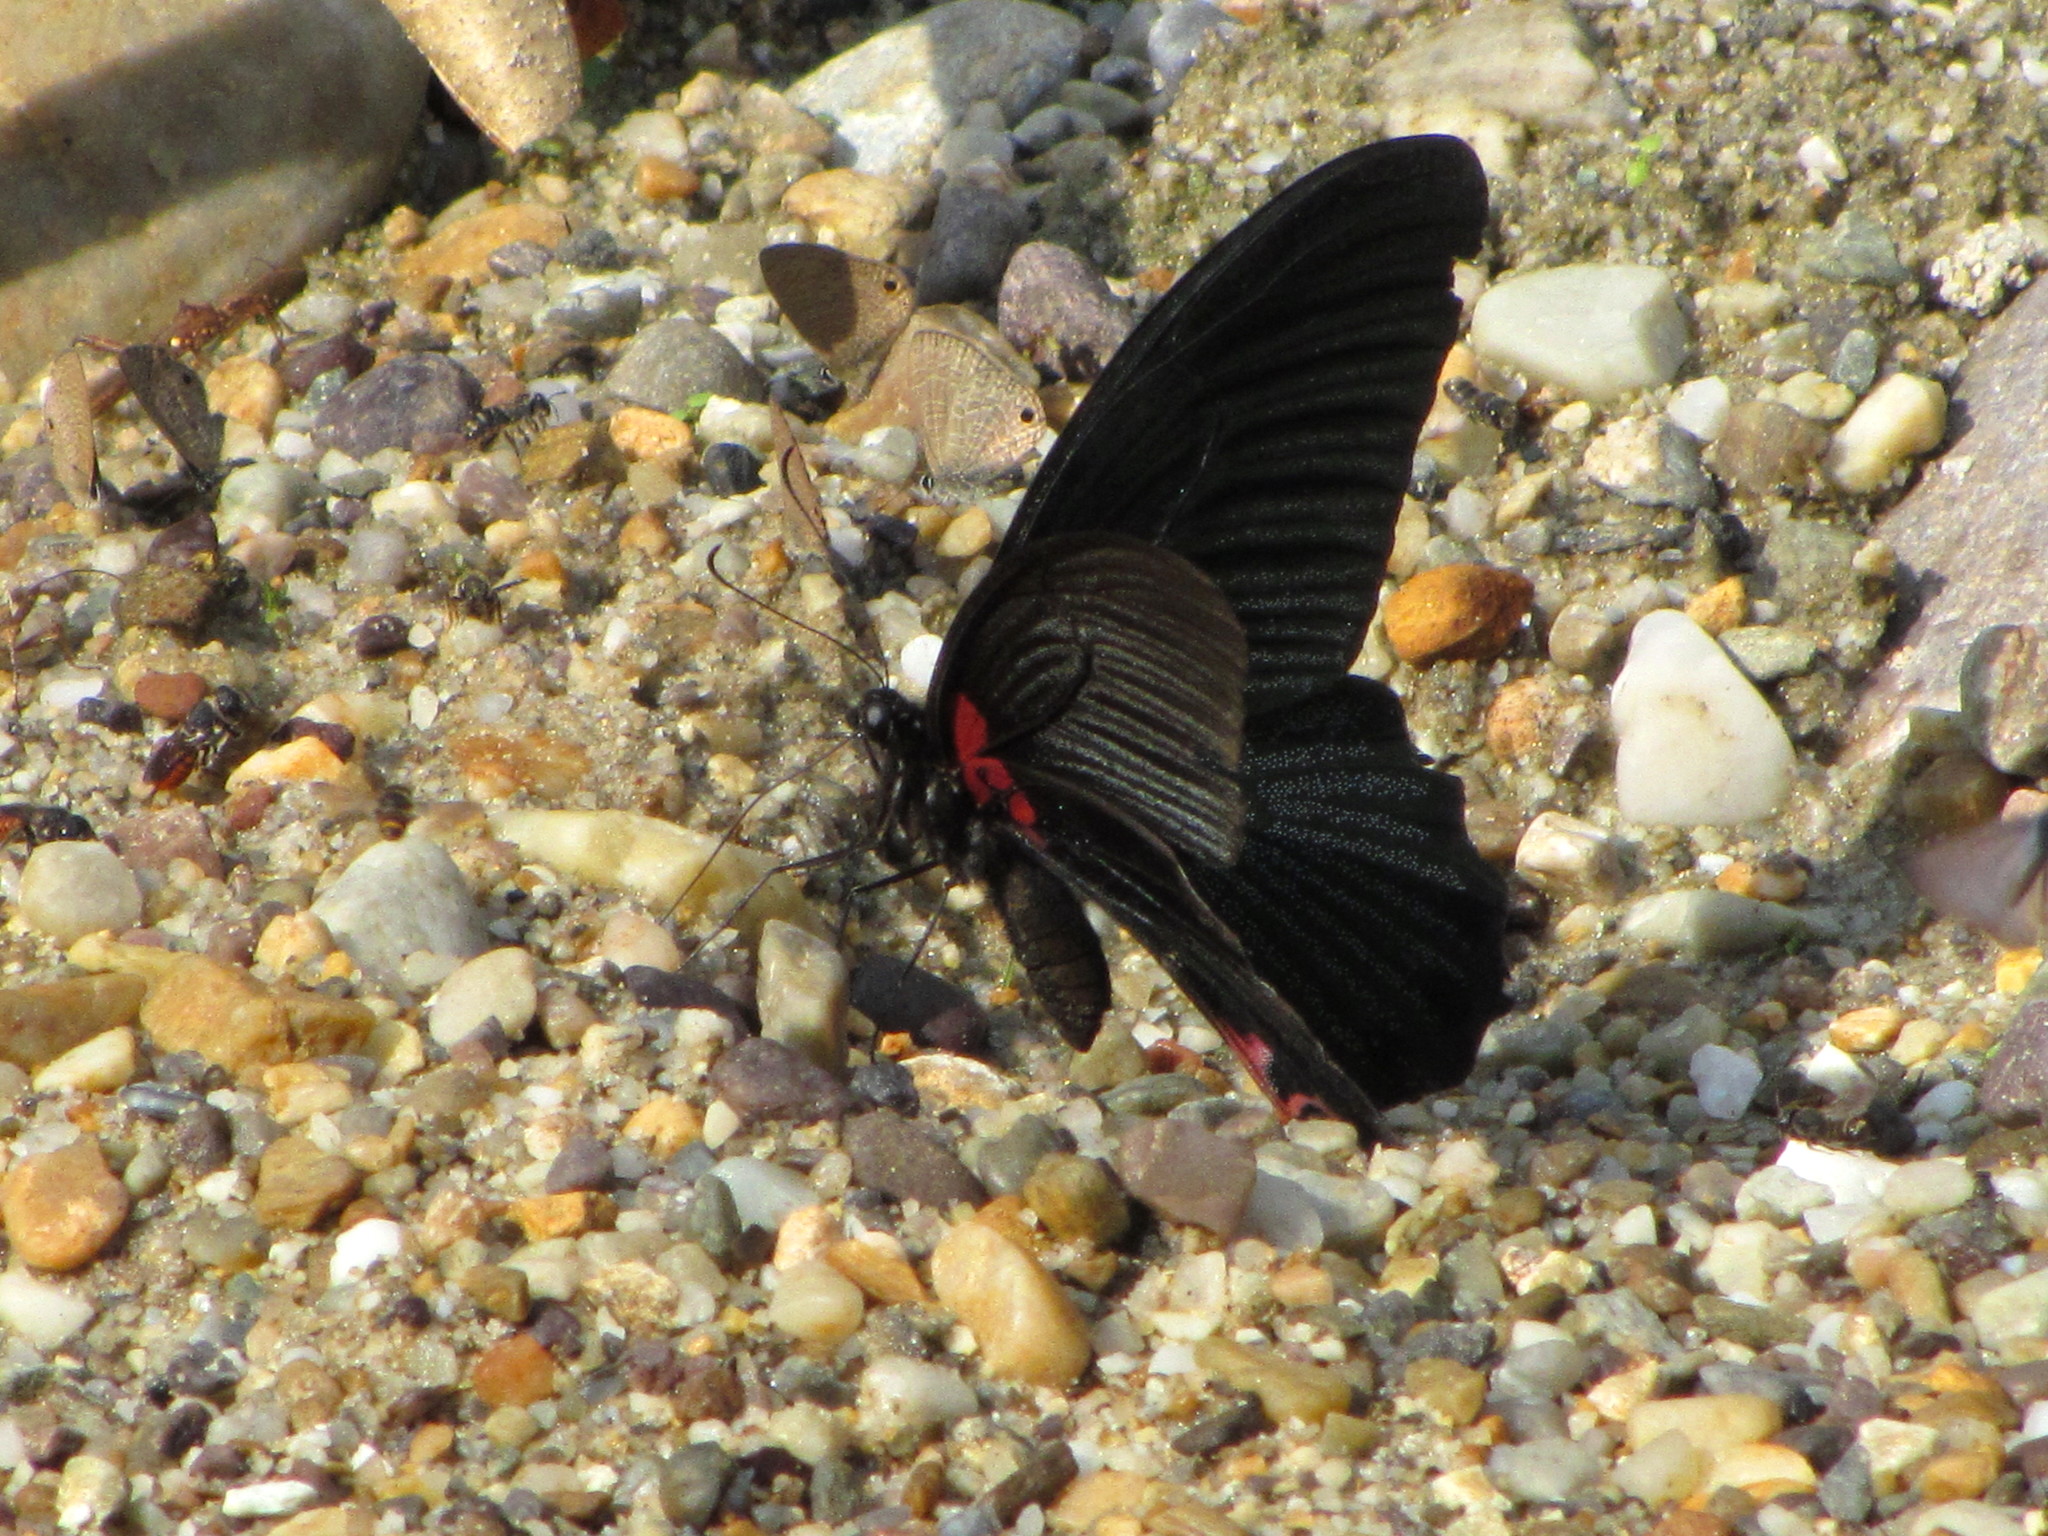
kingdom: Animalia
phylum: Arthropoda
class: Insecta
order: Lepidoptera
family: Papilionidae
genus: Papilio
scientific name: Papilio memnon
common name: Great mormon
